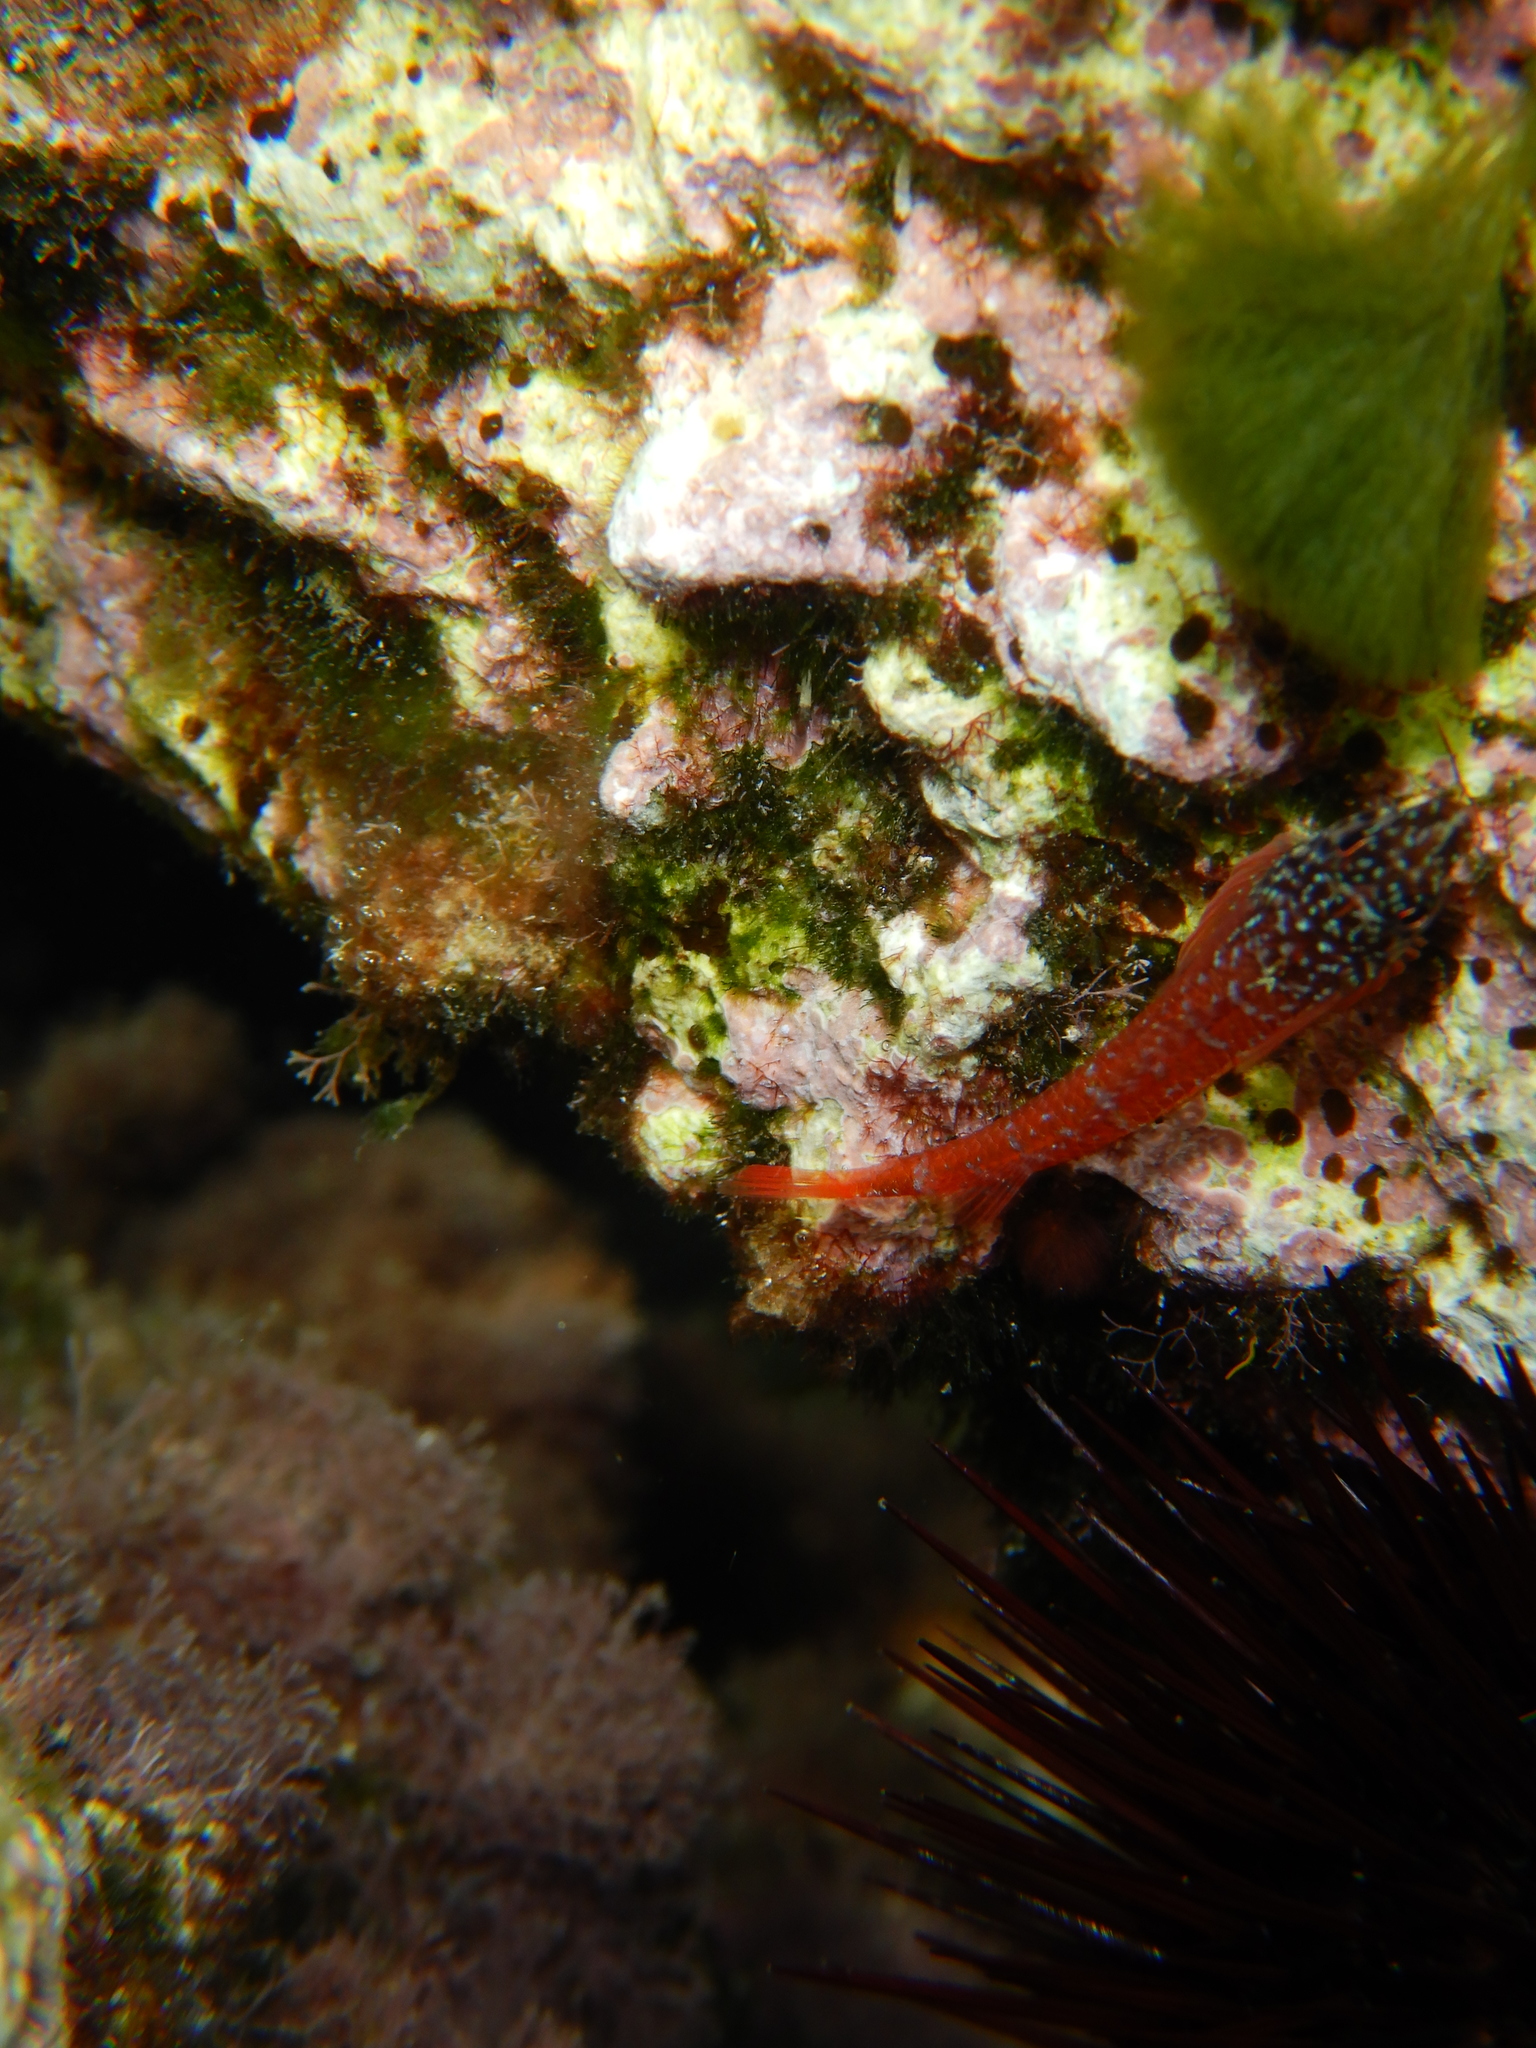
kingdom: Animalia
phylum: Chordata
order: Perciformes
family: Tripterygiidae
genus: Tripterygion
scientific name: Tripterygion melanurum
